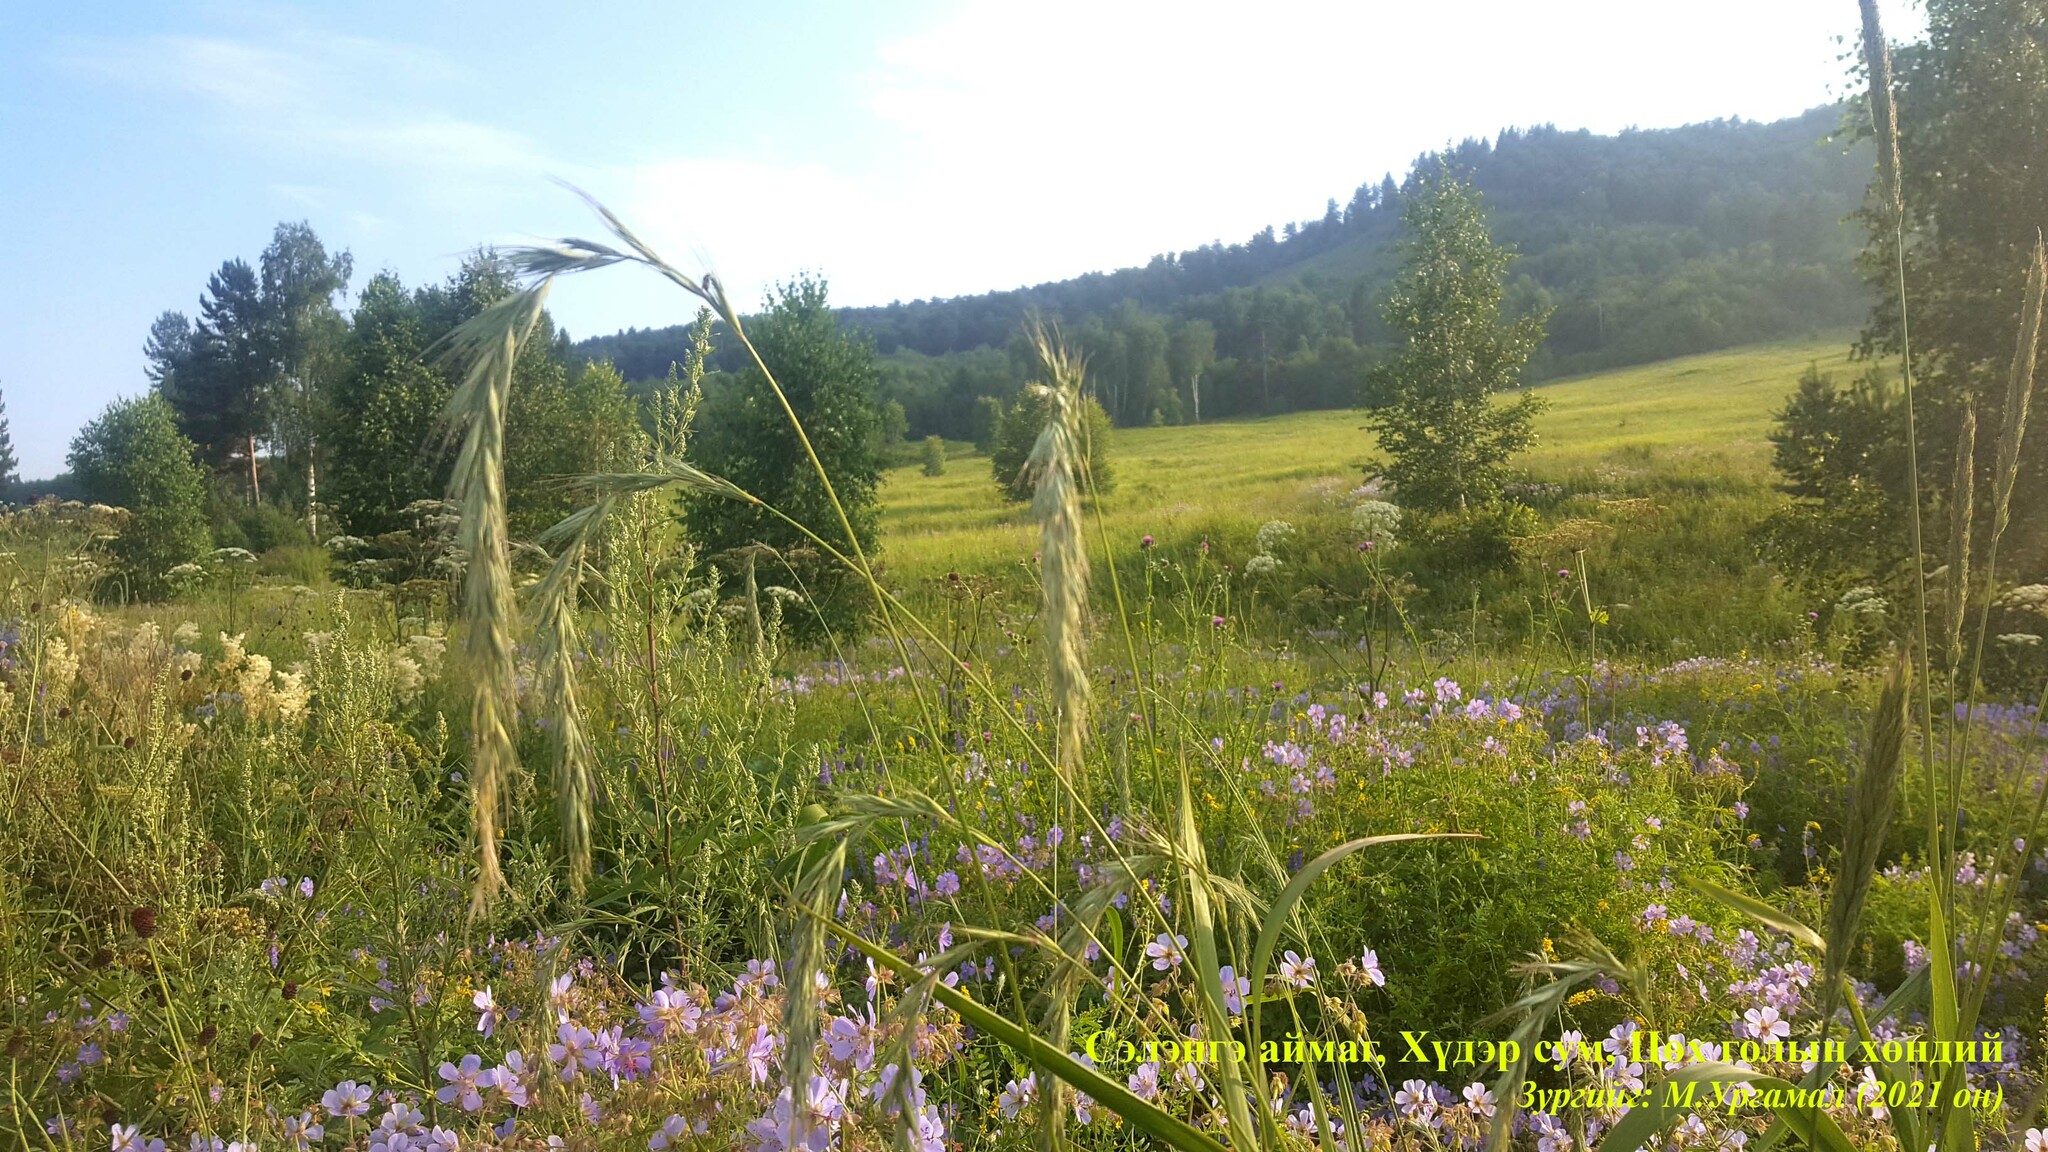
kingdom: Plantae
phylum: Tracheophyta
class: Liliopsida
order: Poales
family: Poaceae
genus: Elymus
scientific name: Elymus sibiricus
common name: Siberian wildrye
